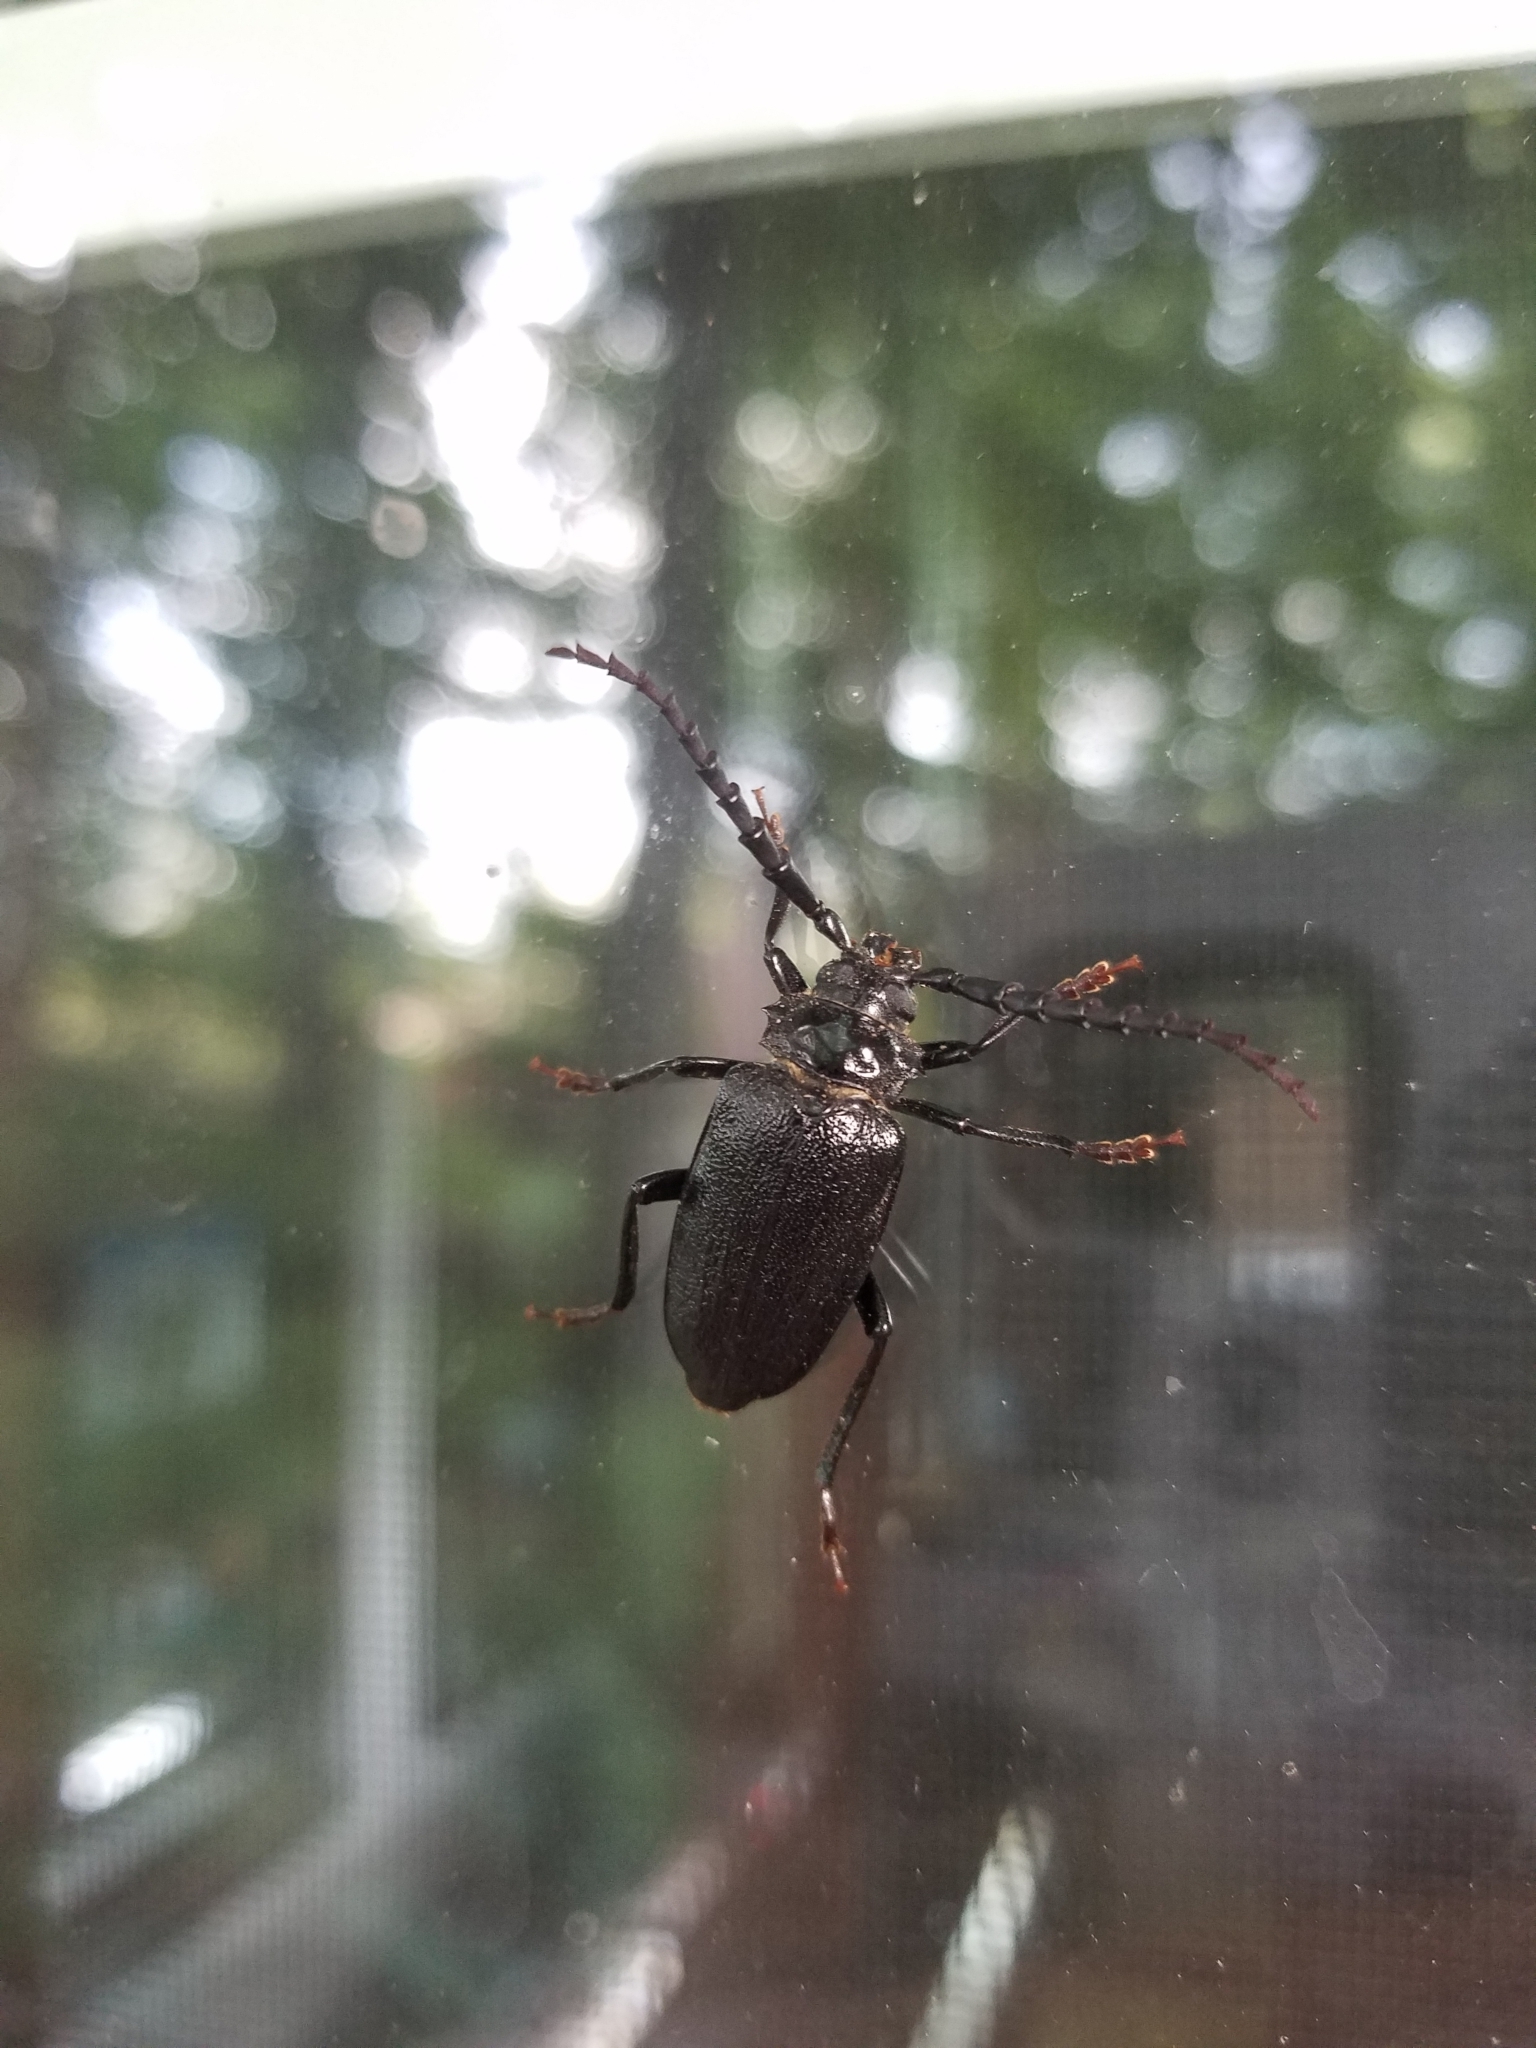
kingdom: Animalia
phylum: Arthropoda
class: Insecta
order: Coleoptera
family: Cerambycidae
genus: Prionus
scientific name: Prionus laticollis
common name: Broad necked prionus
